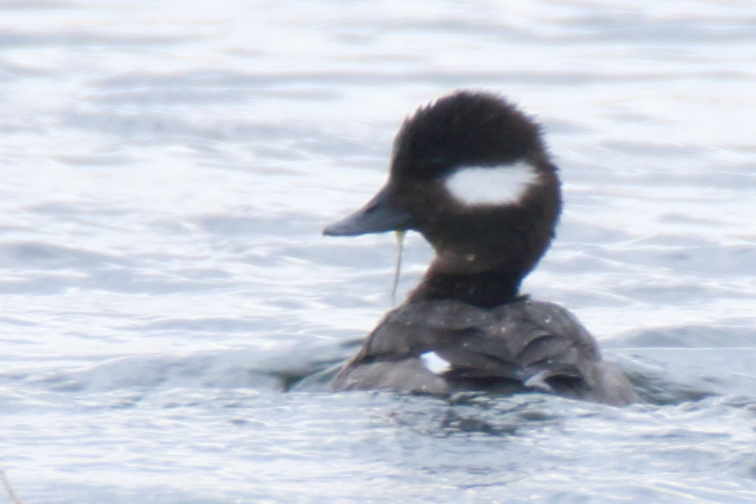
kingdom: Animalia
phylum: Chordata
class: Aves
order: Anseriformes
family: Anatidae
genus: Bucephala
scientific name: Bucephala albeola
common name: Bufflehead
